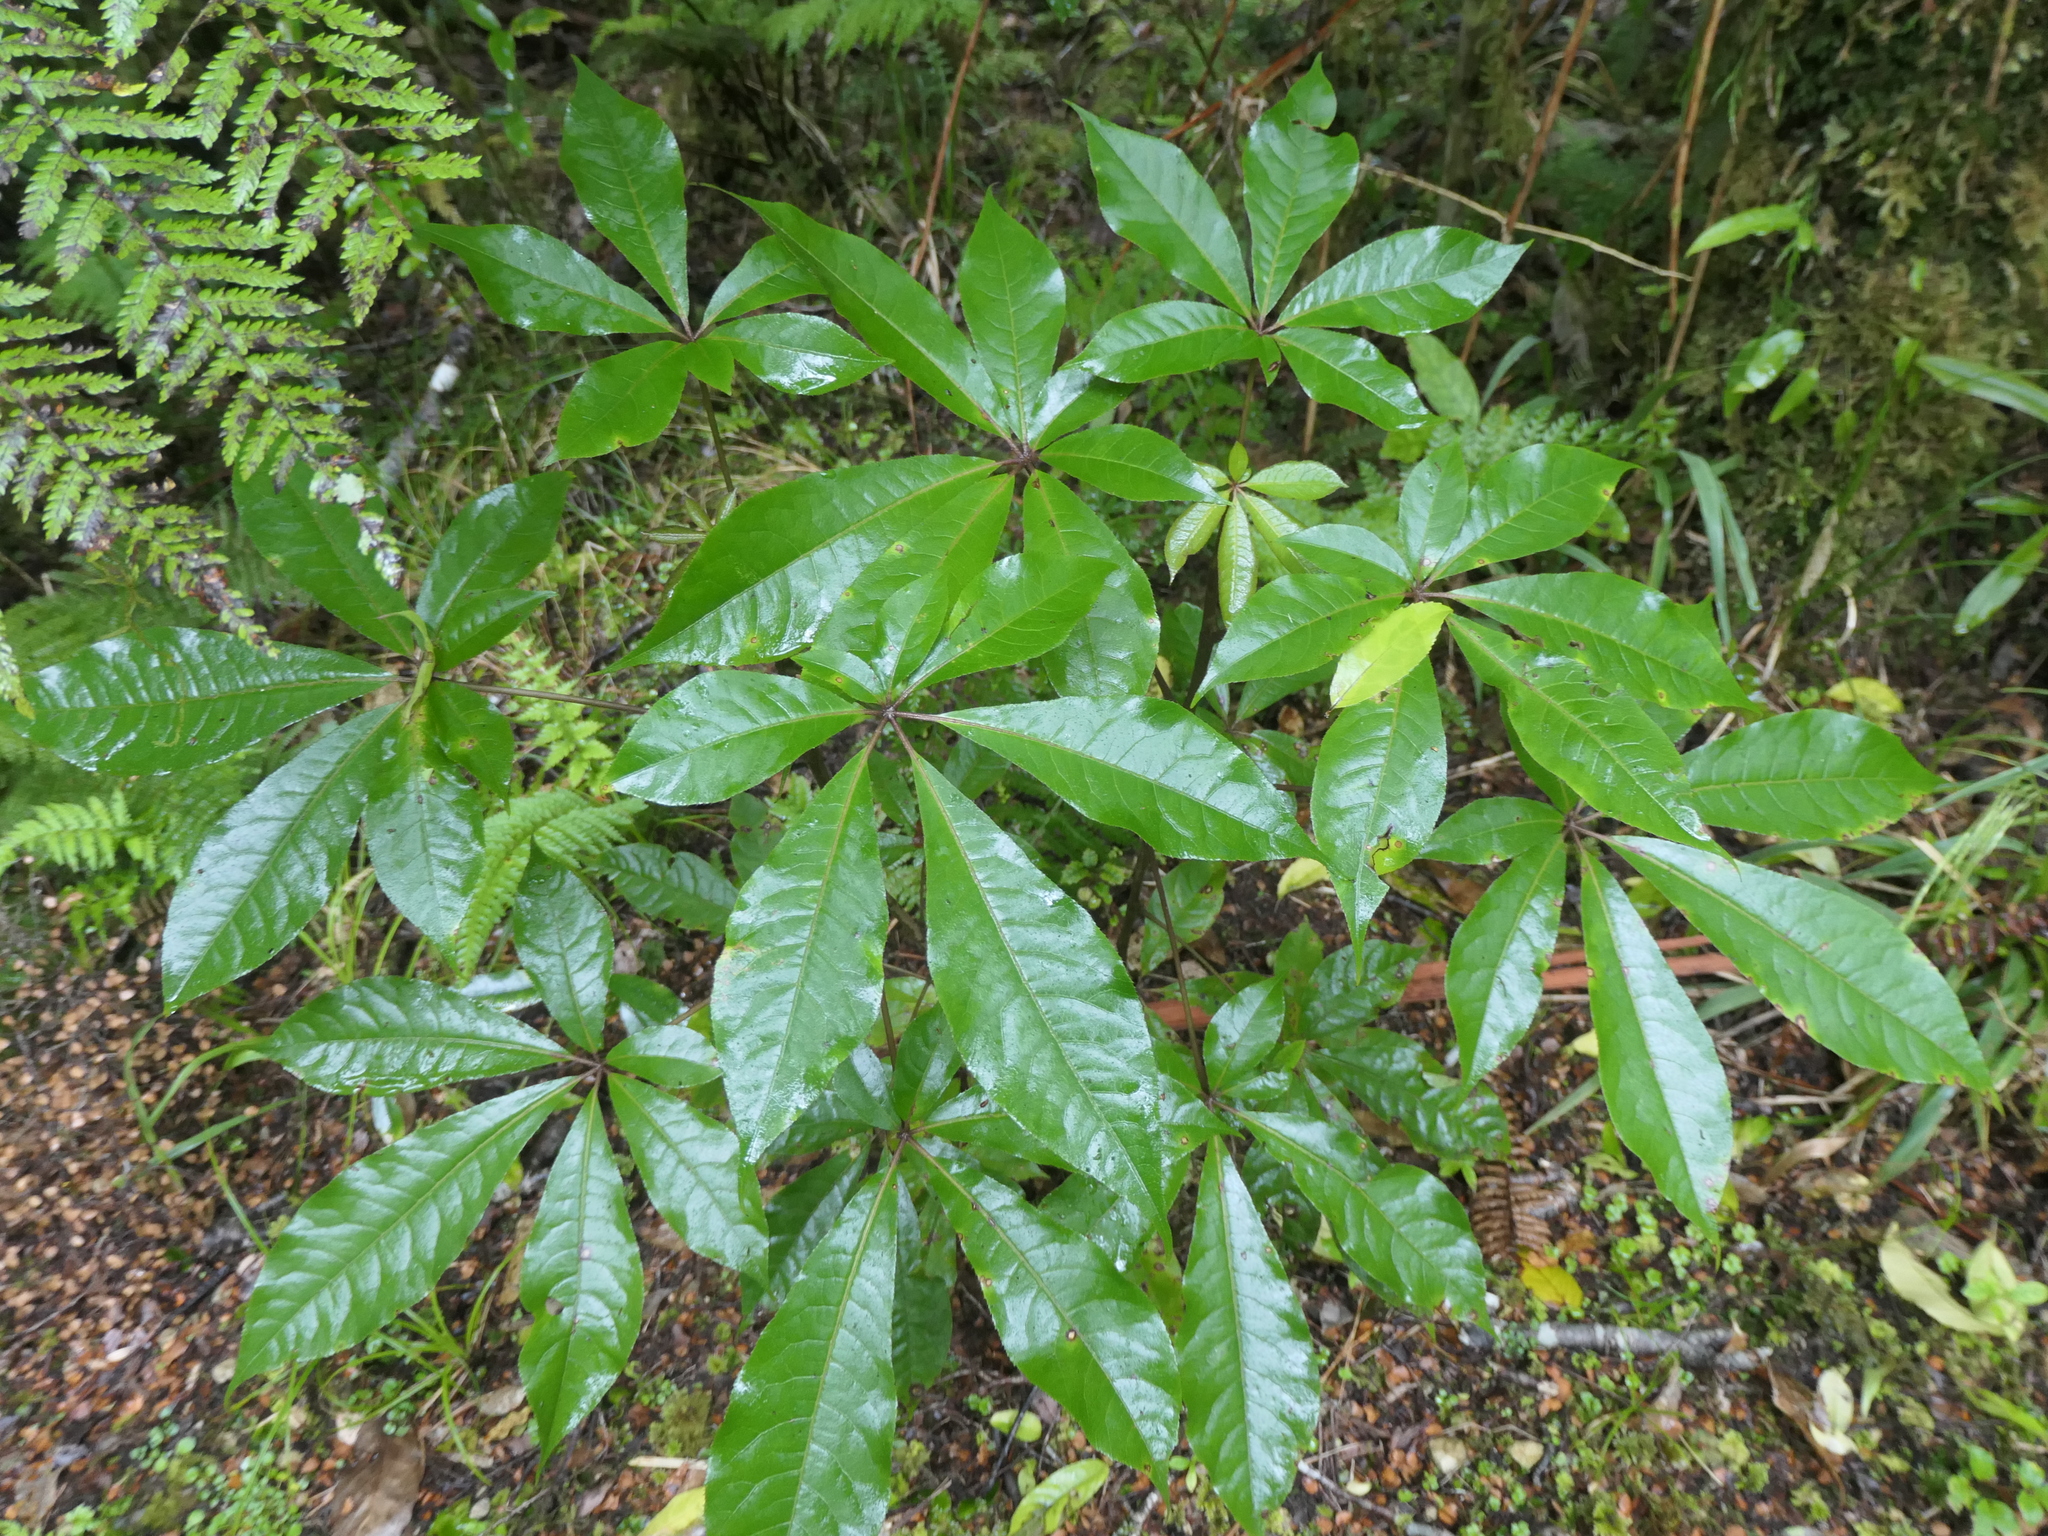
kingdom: Plantae
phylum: Tracheophyta
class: Magnoliopsida
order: Apiales
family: Araliaceae
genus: Schefflera
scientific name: Schefflera digitata
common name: Pate
